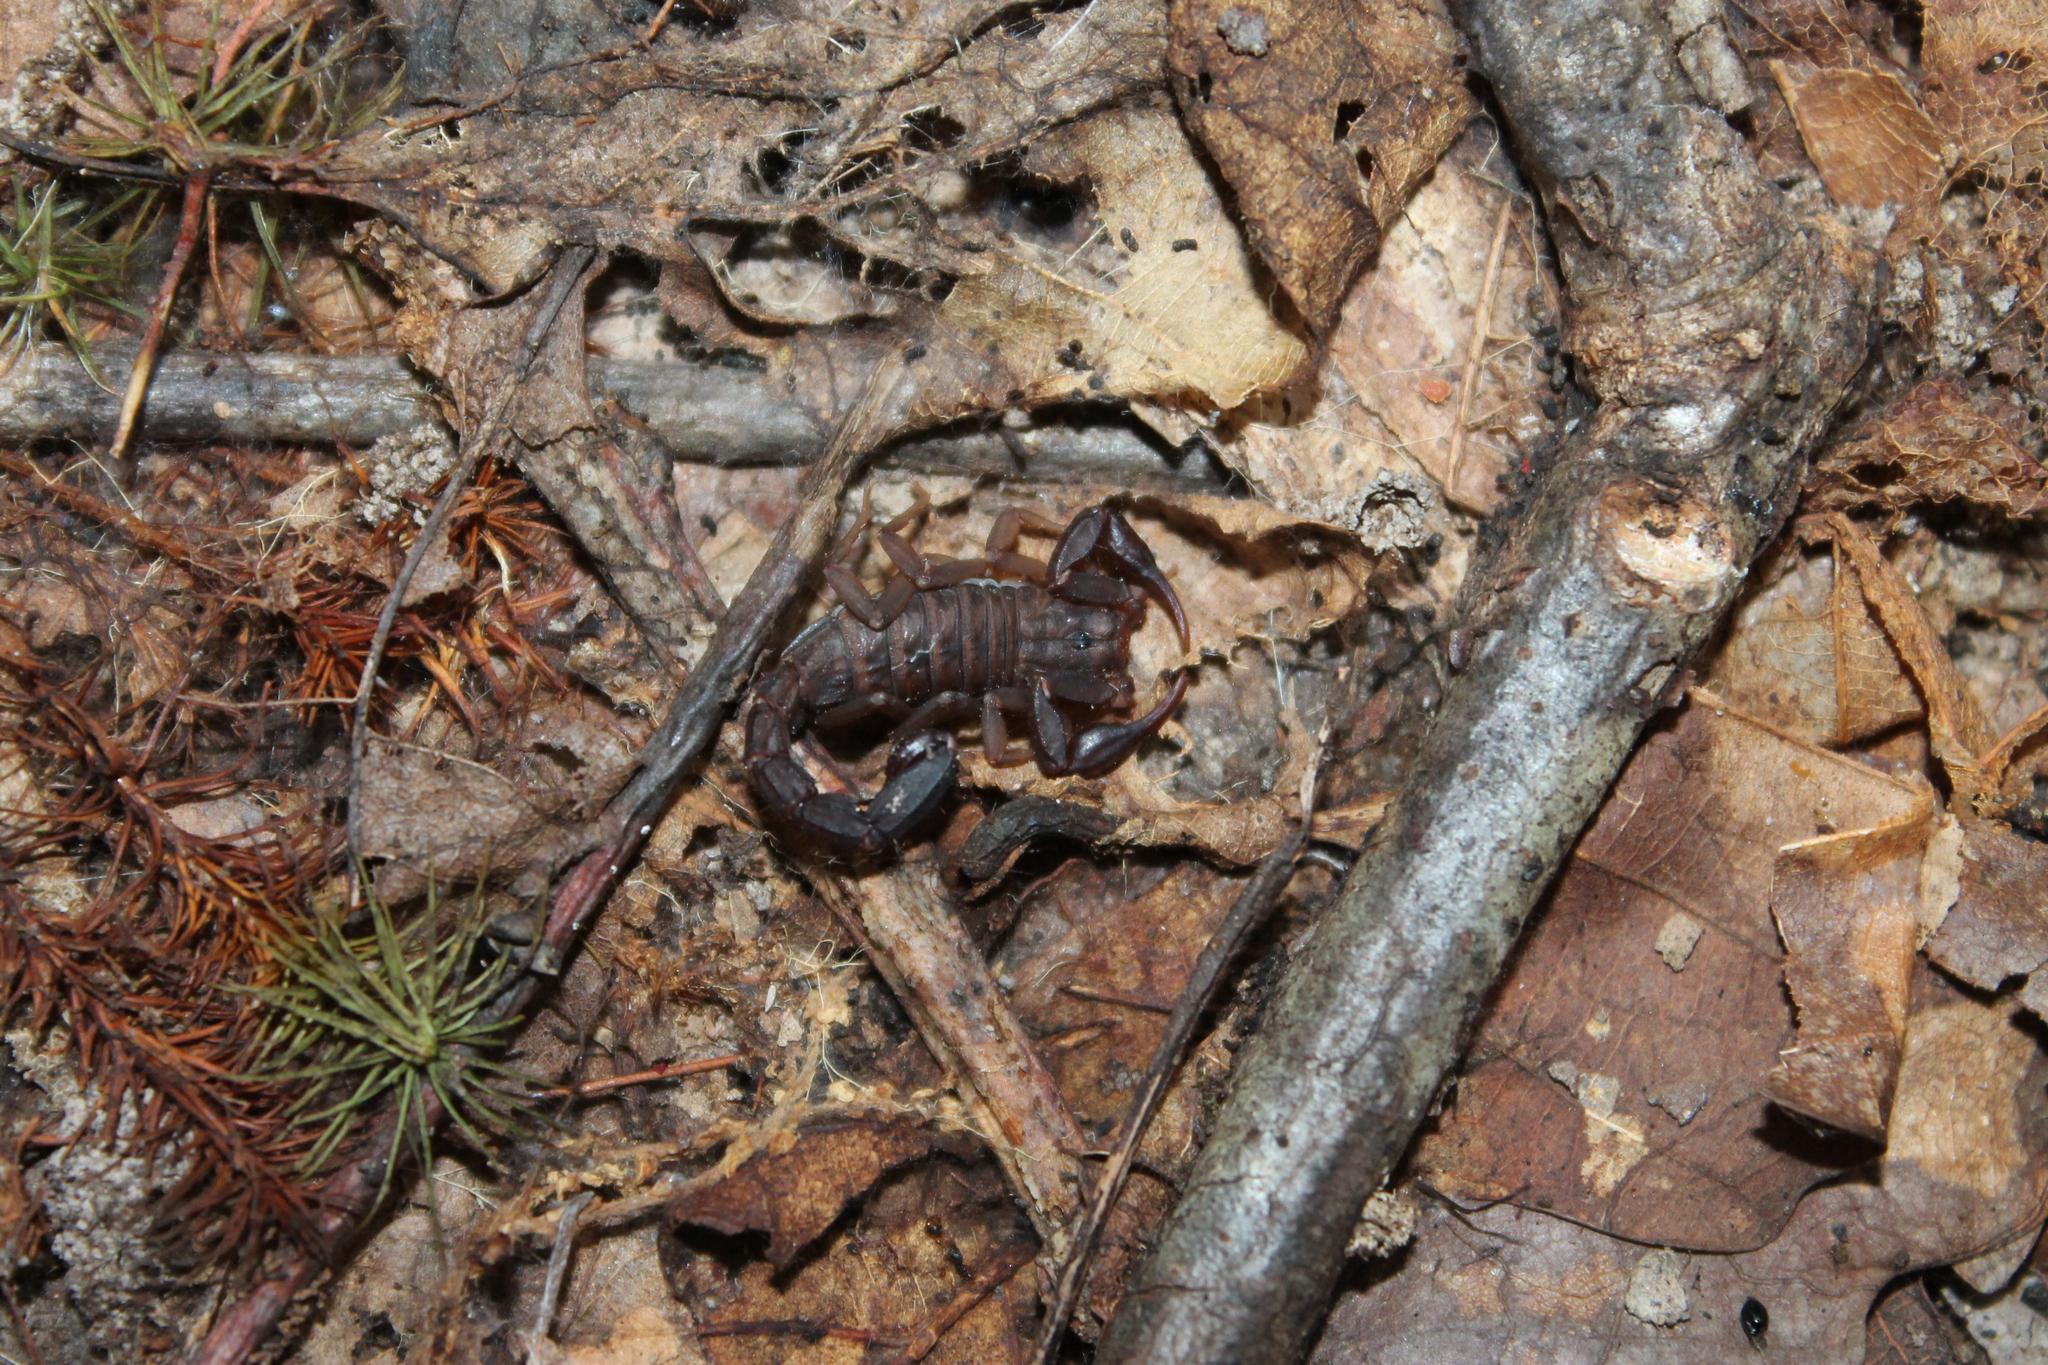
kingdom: Animalia
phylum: Arthropoda
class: Arachnida
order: Scorpiones
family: Vaejovidae
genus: Vaejovis
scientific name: Vaejovis carolinianus
